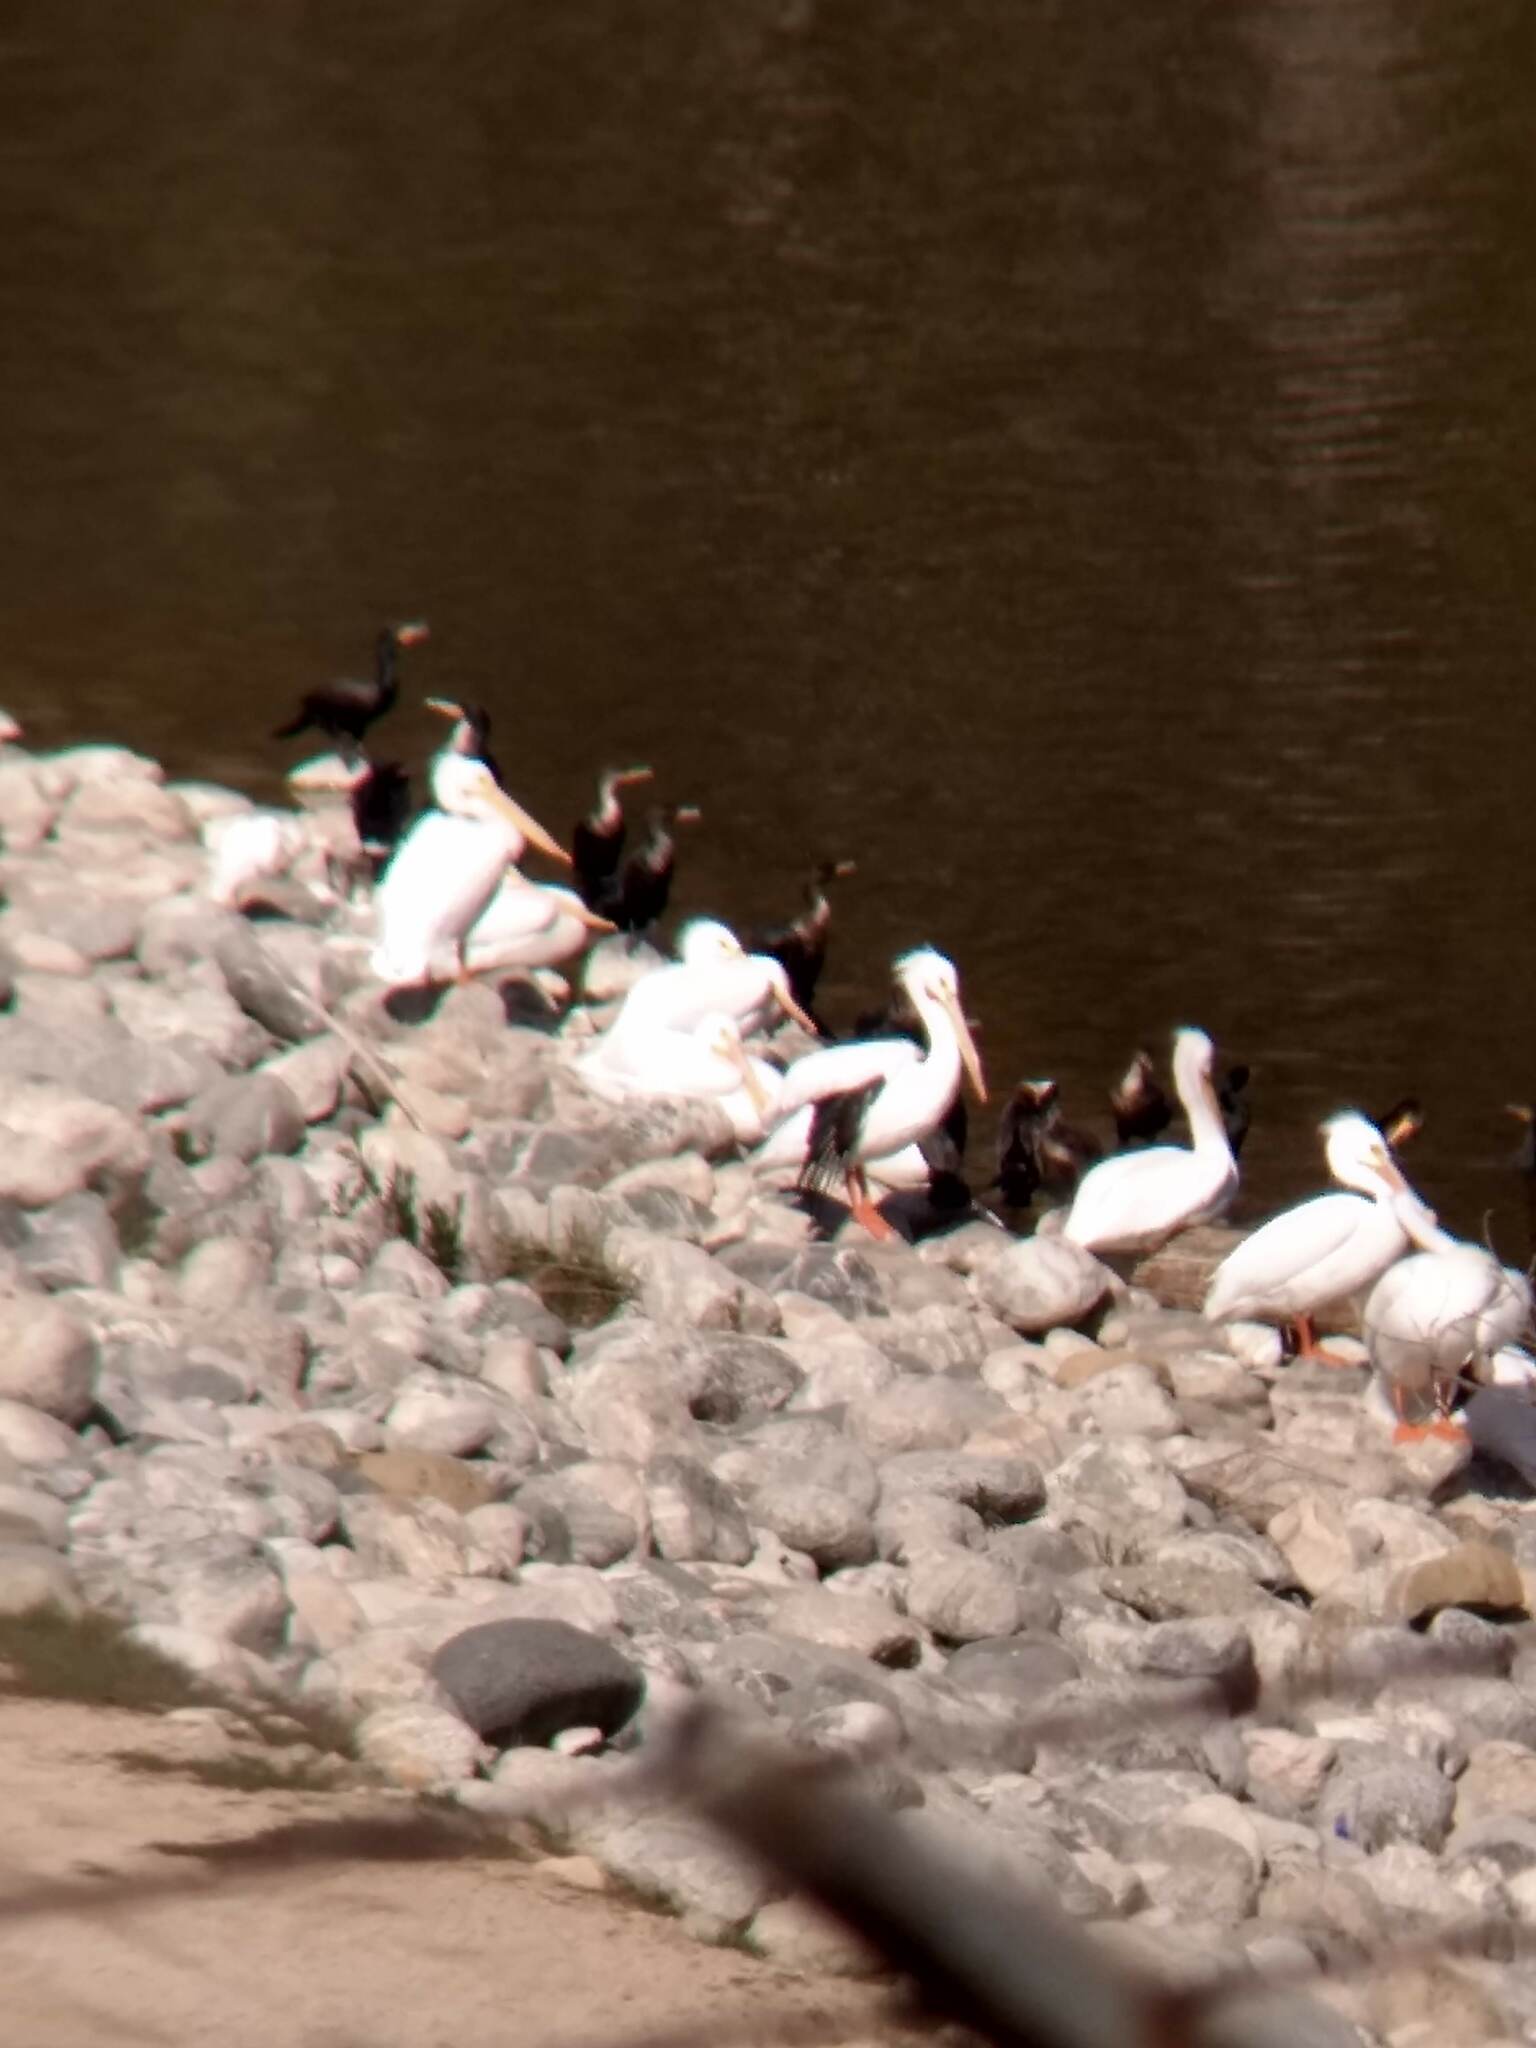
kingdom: Animalia
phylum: Chordata
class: Aves
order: Suliformes
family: Phalacrocoracidae
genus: Phalacrocorax
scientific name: Phalacrocorax auritus
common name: Double-crested cormorant
